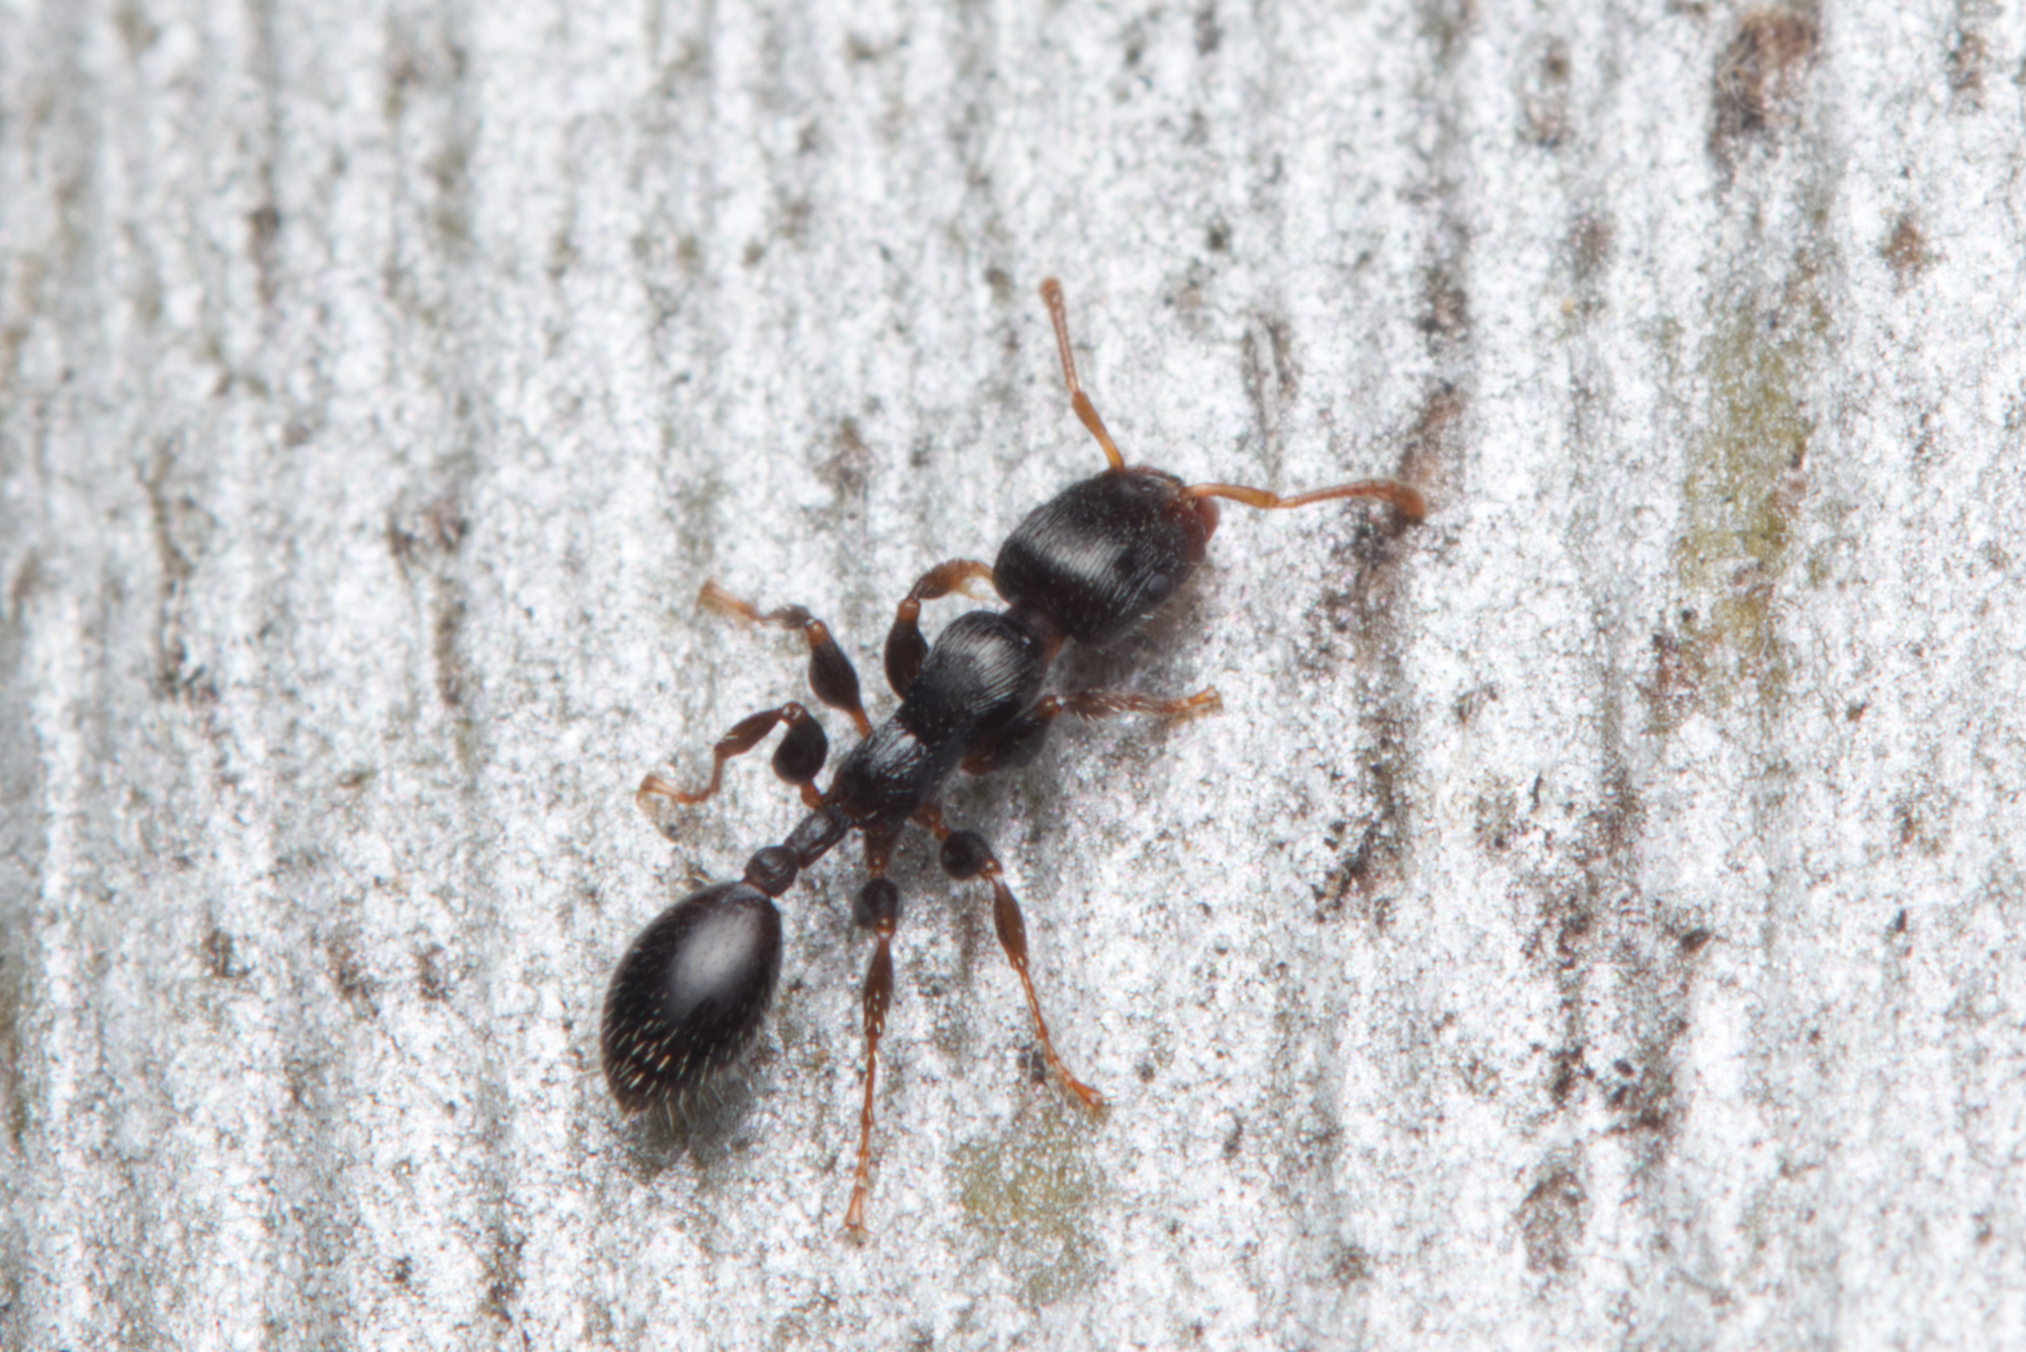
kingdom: Animalia
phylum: Arthropoda
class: Insecta
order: Hymenoptera
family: Formicidae
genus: Podomyrma
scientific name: Podomyrma elongata
